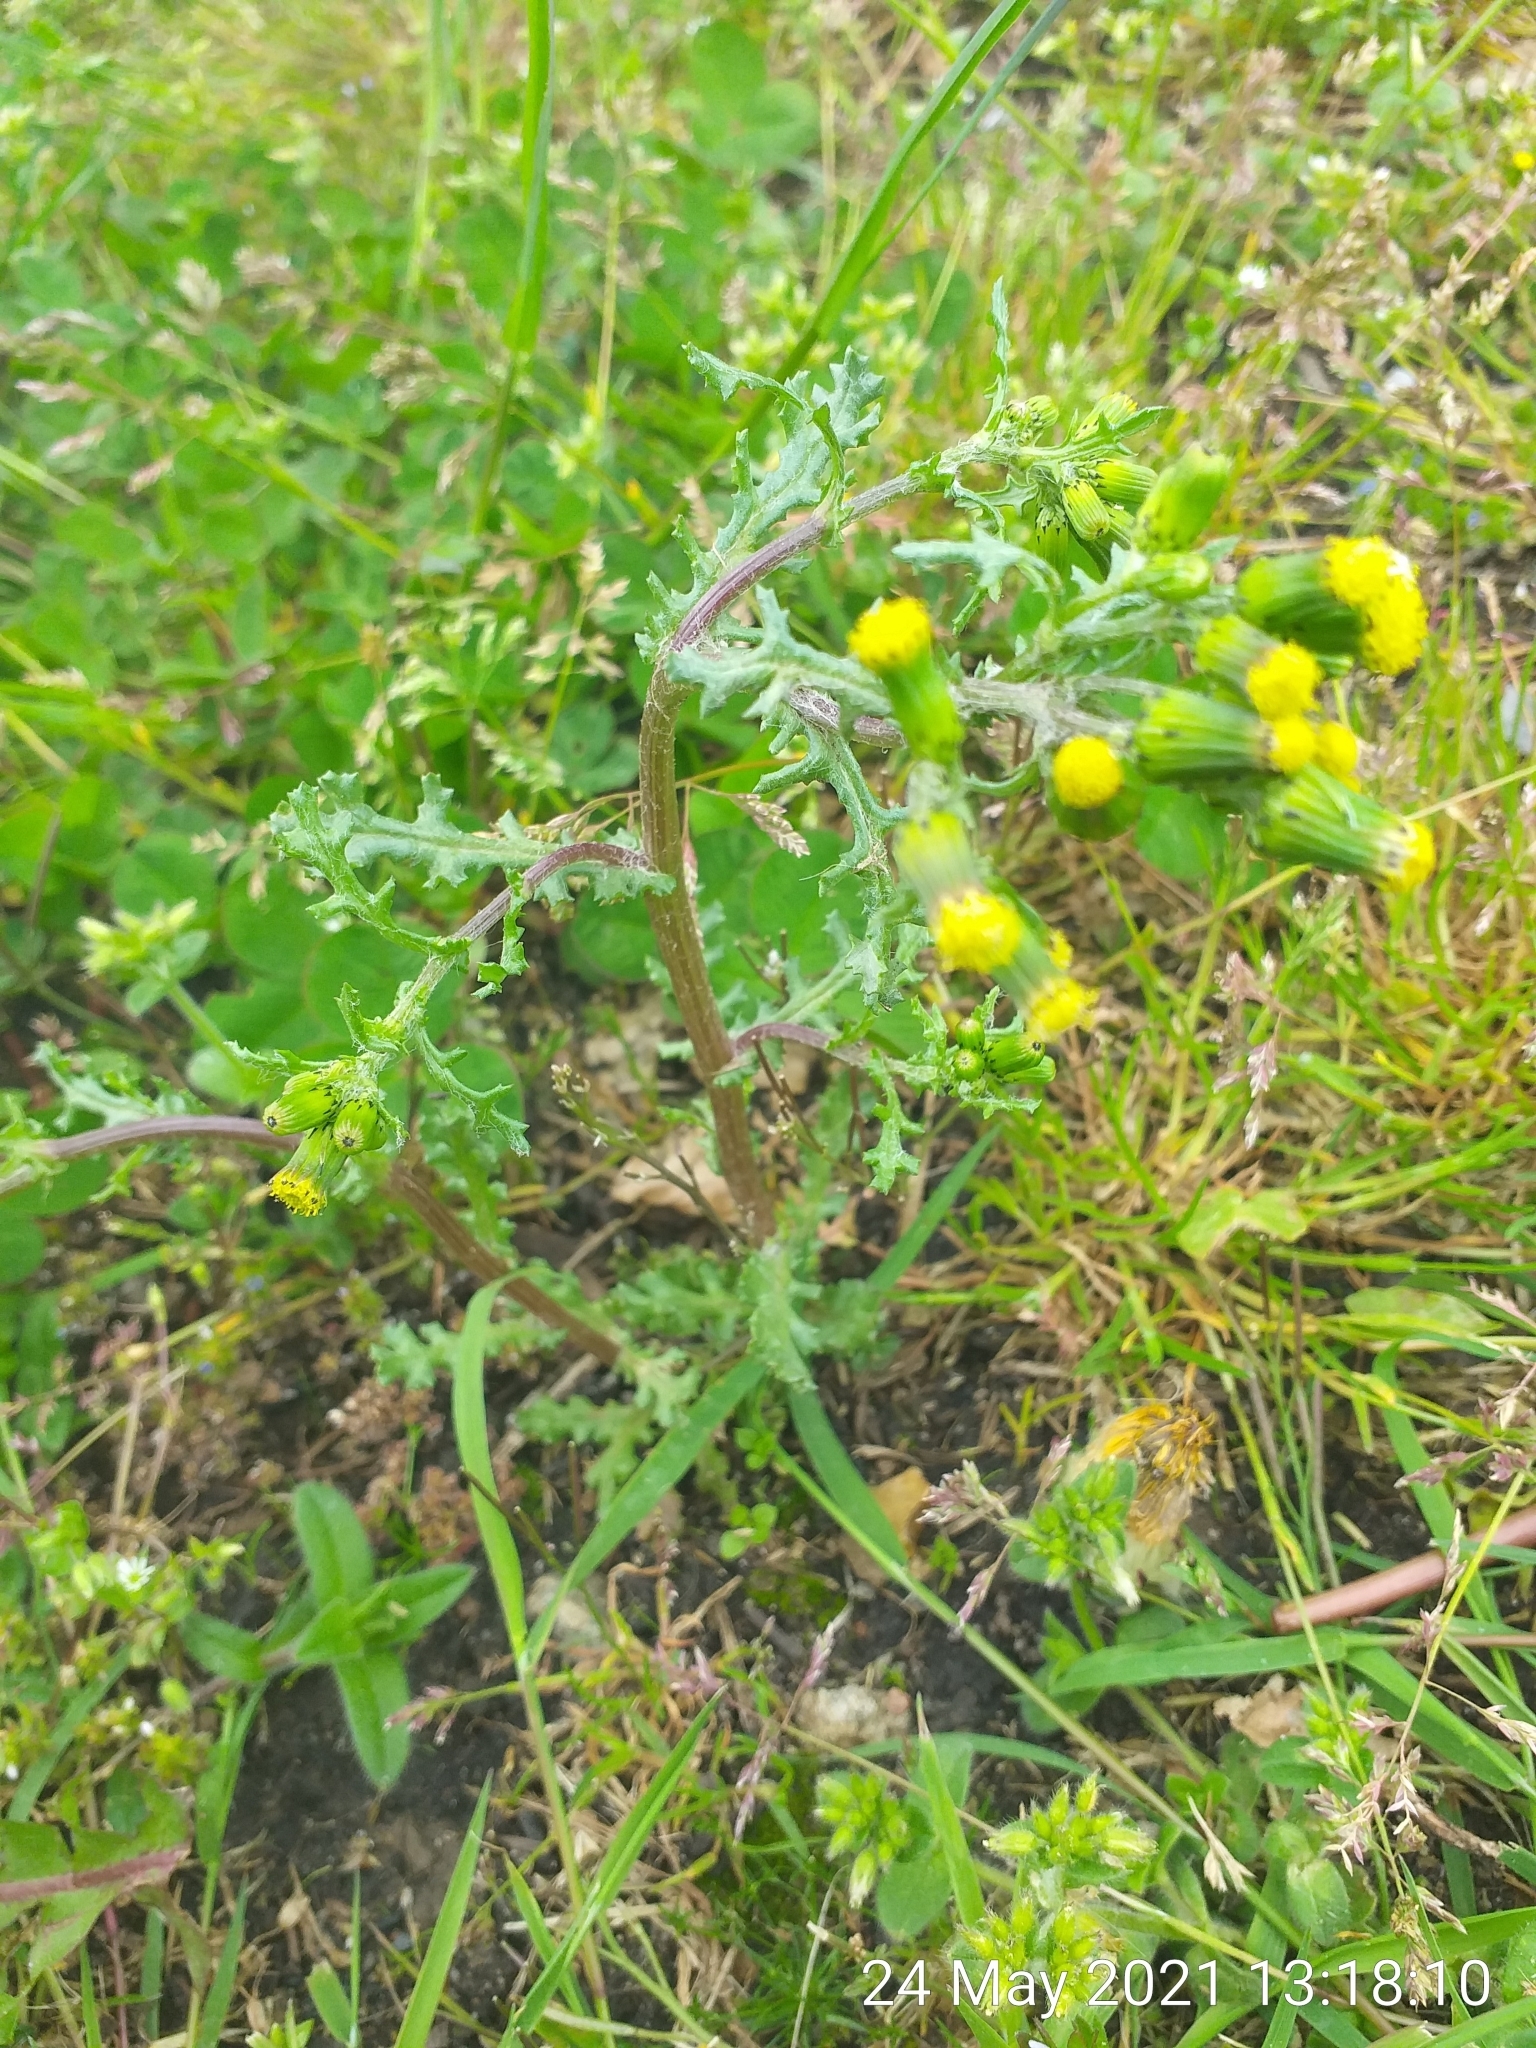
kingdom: Plantae
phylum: Tracheophyta
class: Magnoliopsida
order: Asterales
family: Asteraceae
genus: Senecio
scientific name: Senecio vulgaris
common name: Old-man-in-the-spring
